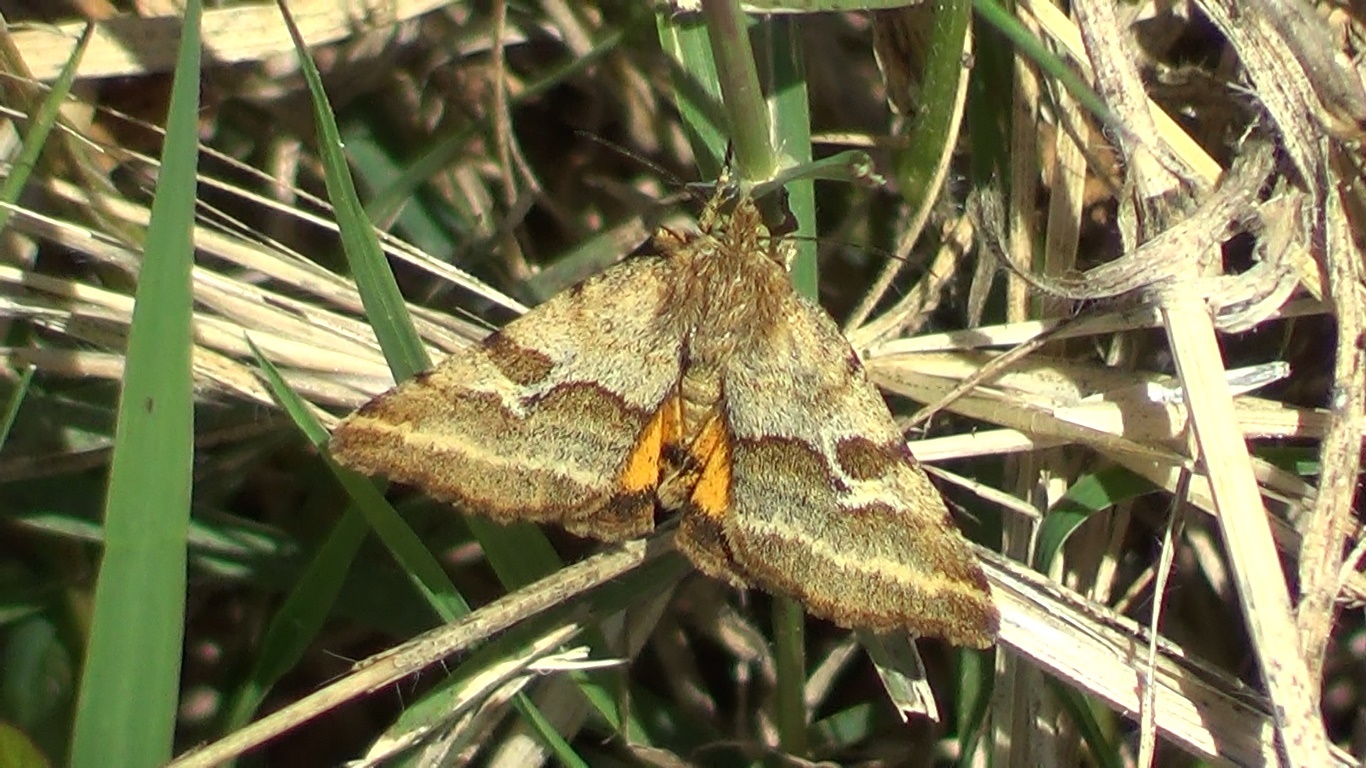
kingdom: Animalia
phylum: Arthropoda
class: Insecta
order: Lepidoptera
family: Noctuidae
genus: Synthymia
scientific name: Synthymia fixa
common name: Goldwing
